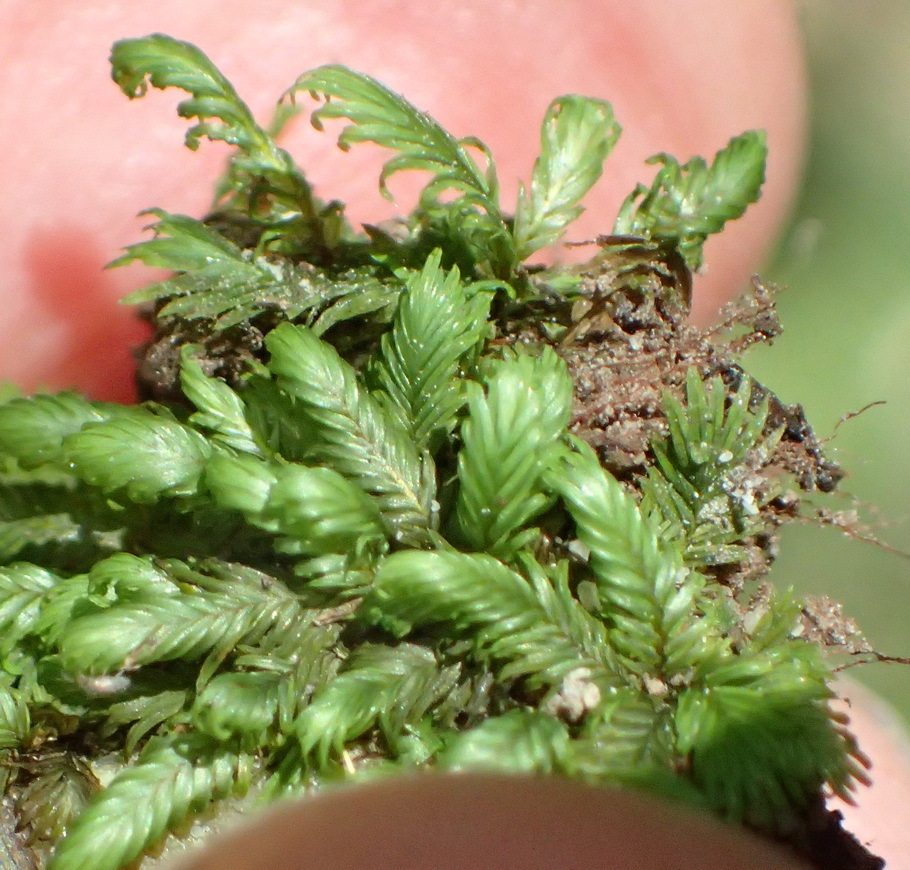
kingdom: Plantae
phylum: Bryophyta
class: Bryopsida
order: Dicranales
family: Fissidentaceae
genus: Fissidens
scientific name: Fissidens ovatus
